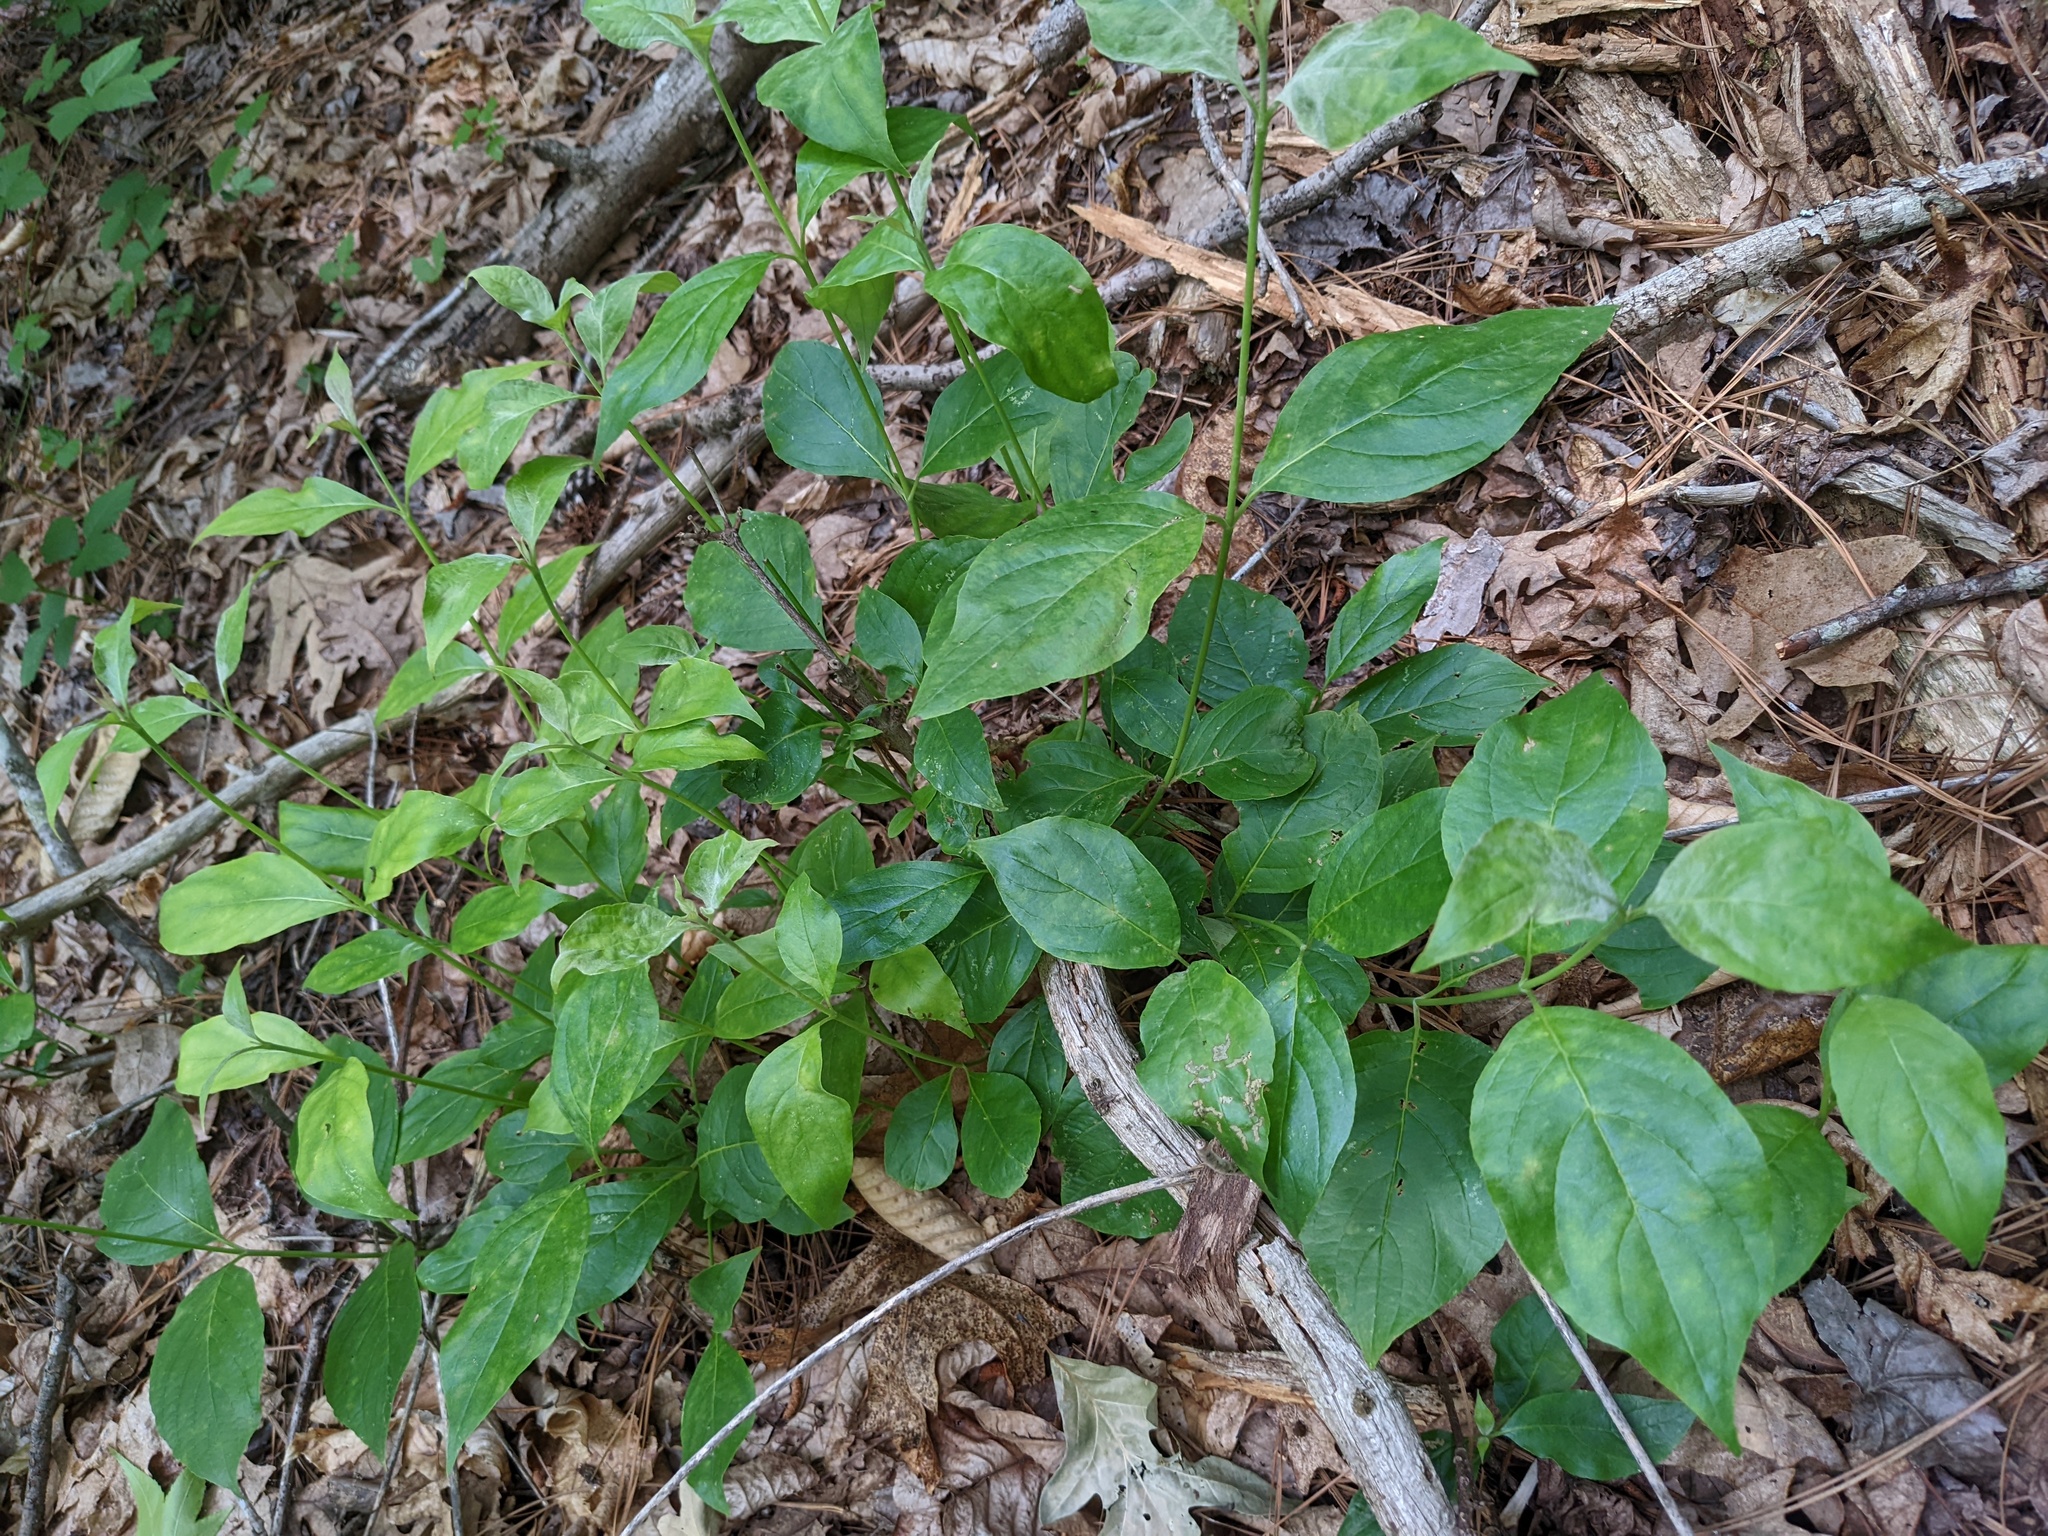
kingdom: Plantae
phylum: Tracheophyta
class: Magnoliopsida
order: Cornales
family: Cornaceae
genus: Cornus
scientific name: Cornus florida
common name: Flowering dogwood
